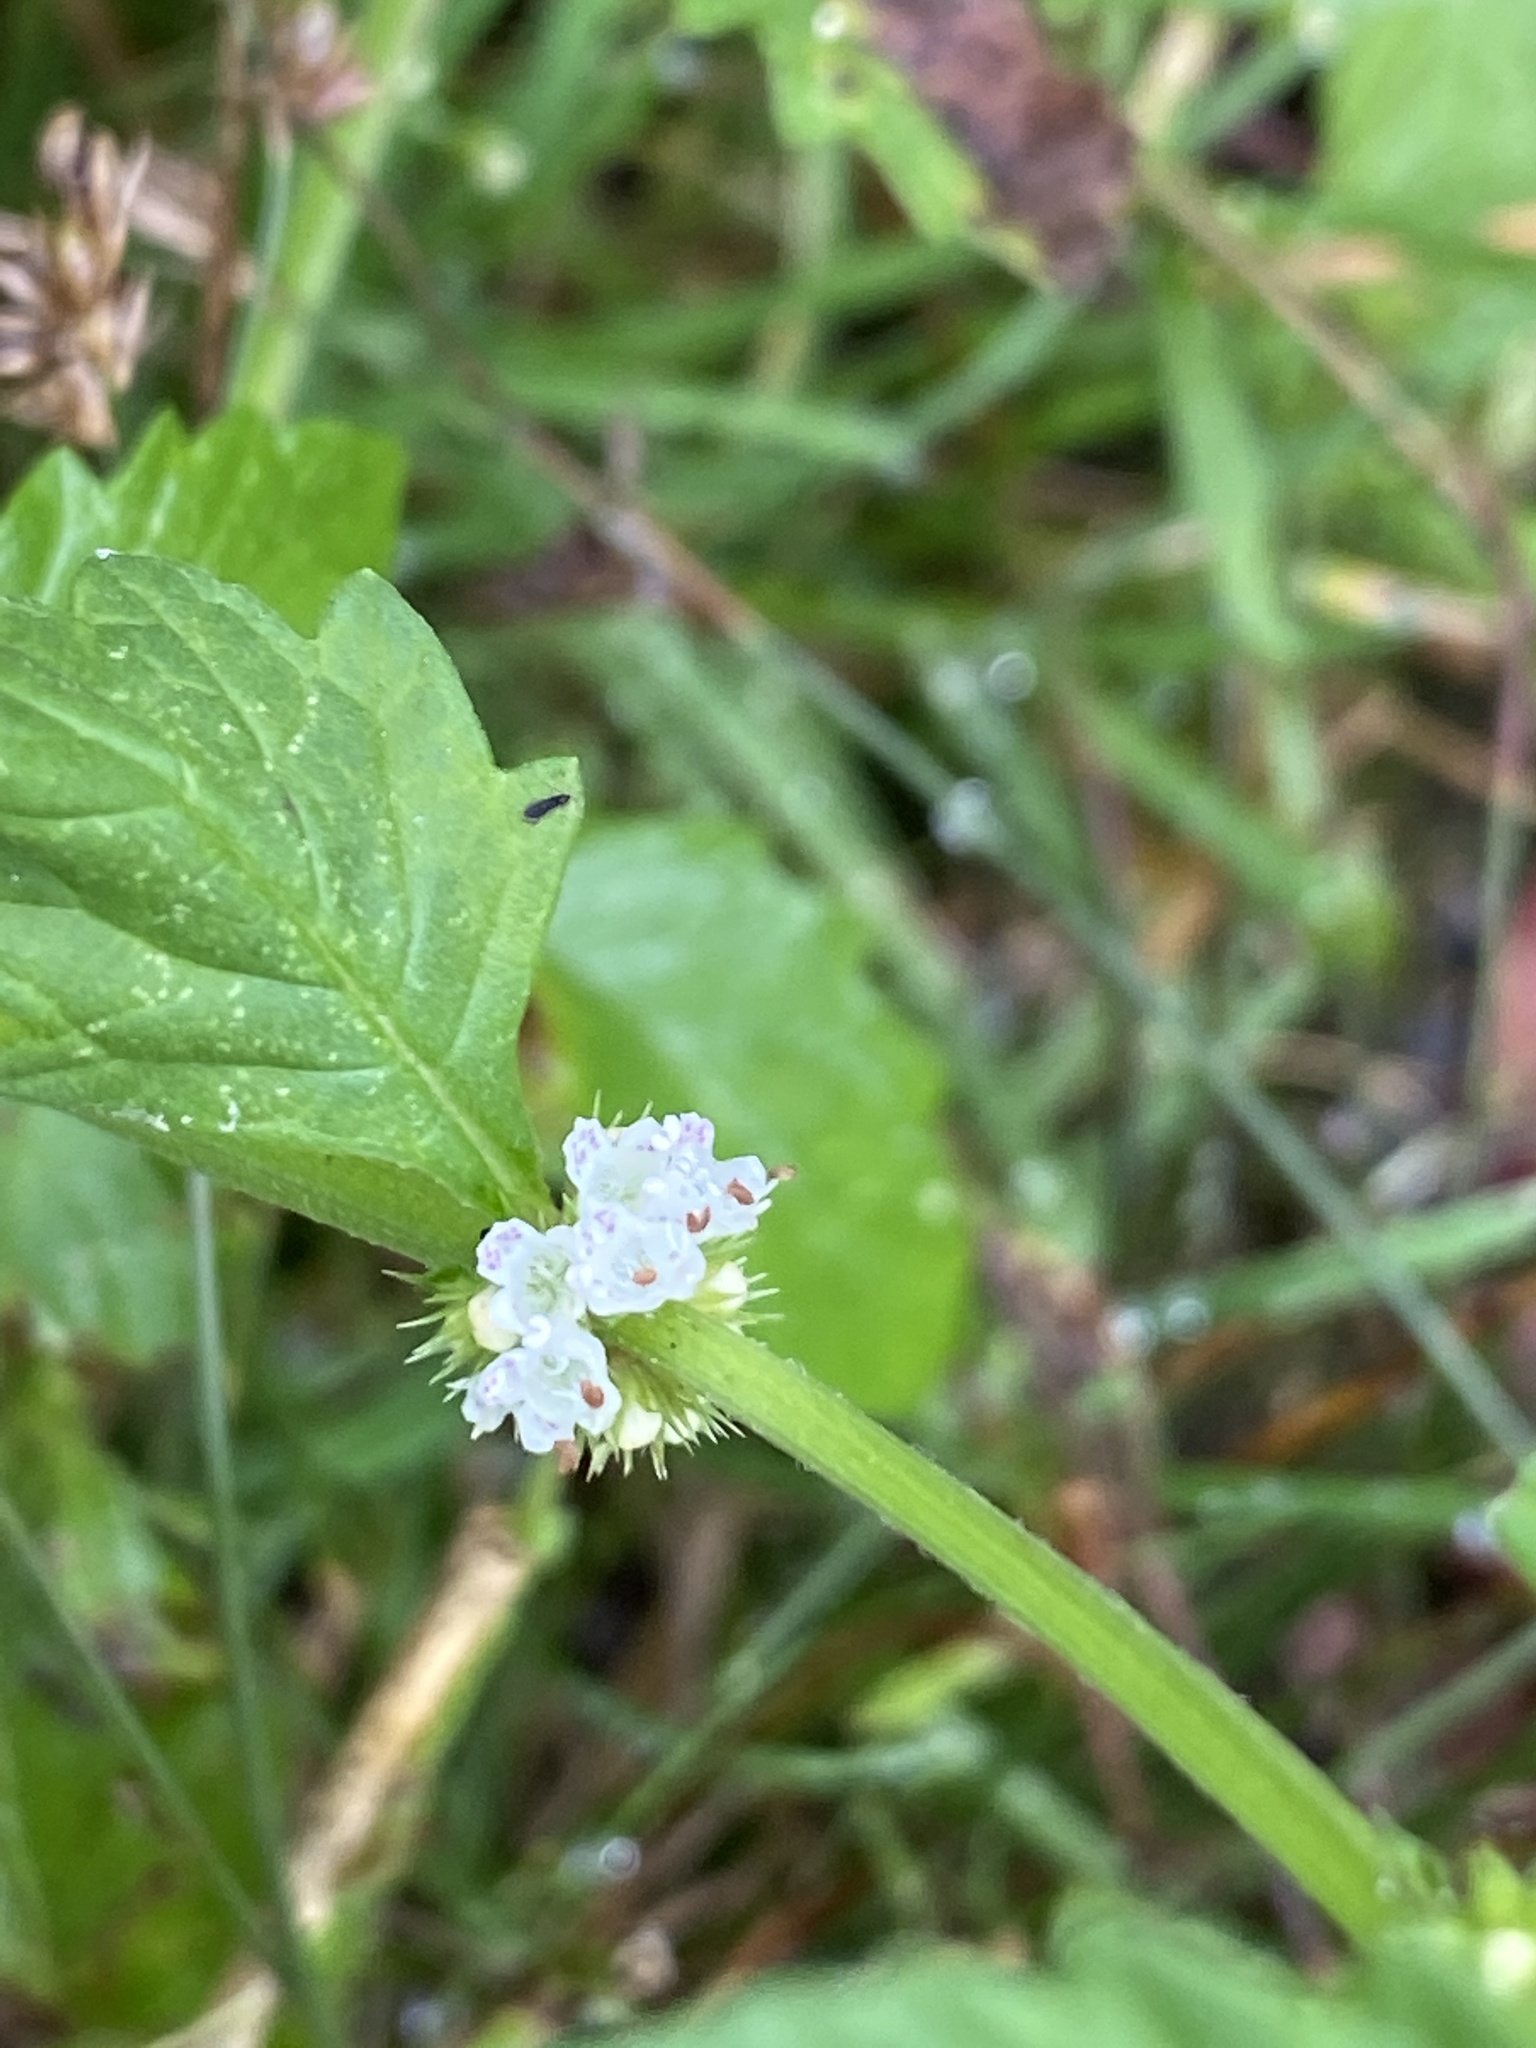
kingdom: Plantae
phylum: Tracheophyta
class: Magnoliopsida
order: Lamiales
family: Lamiaceae
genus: Lycopus
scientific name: Lycopus europaeus
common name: European bugleweed
